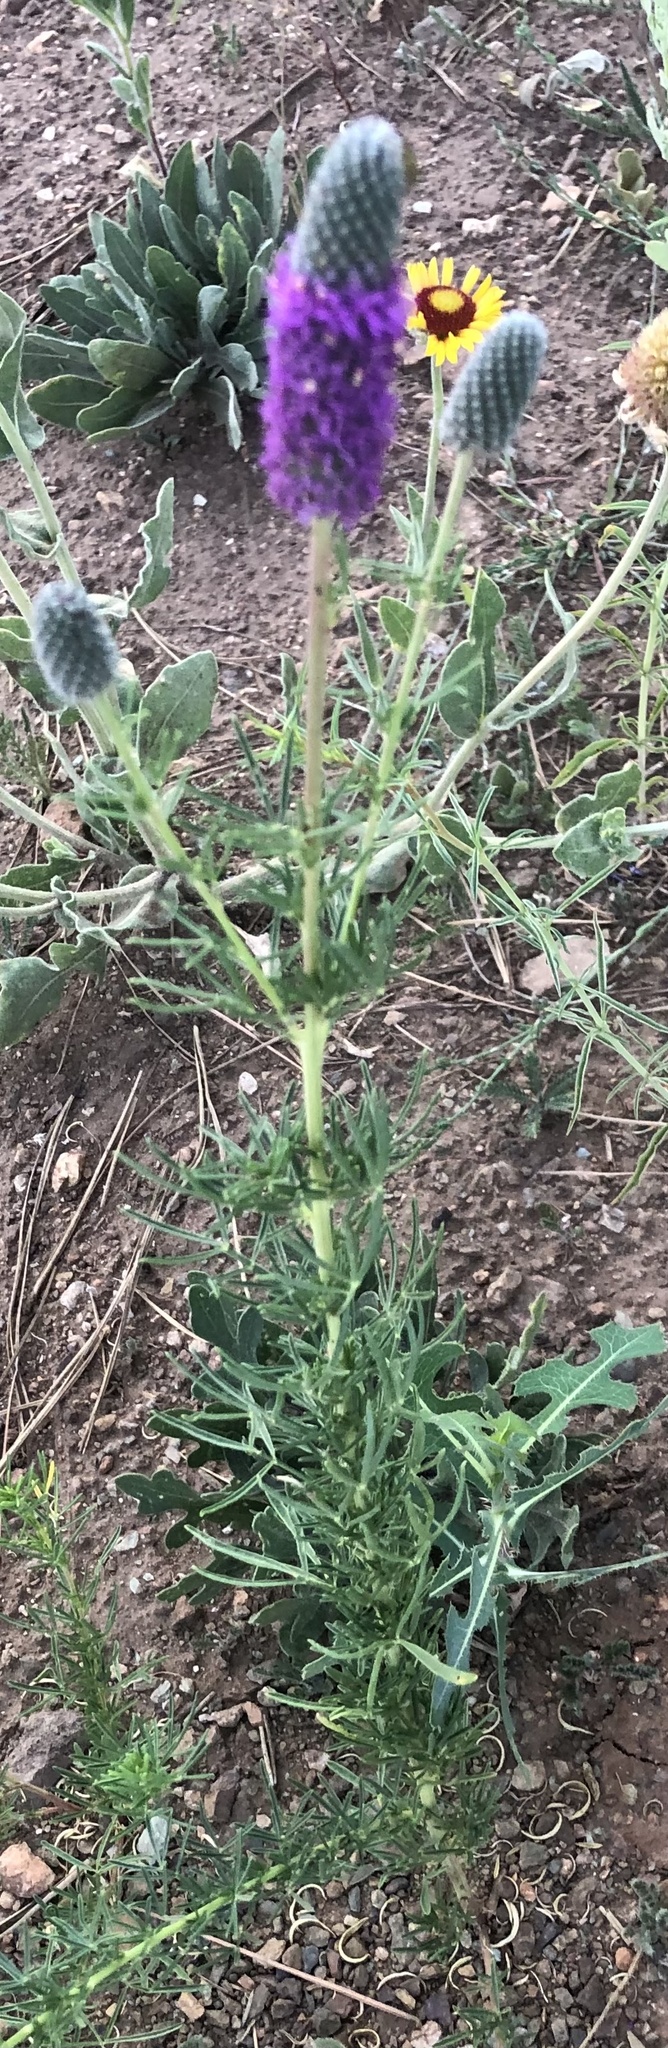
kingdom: Plantae
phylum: Tracheophyta
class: Magnoliopsida
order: Fabales
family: Fabaceae
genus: Dalea
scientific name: Dalea purpurea
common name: Purple prairie-clover
